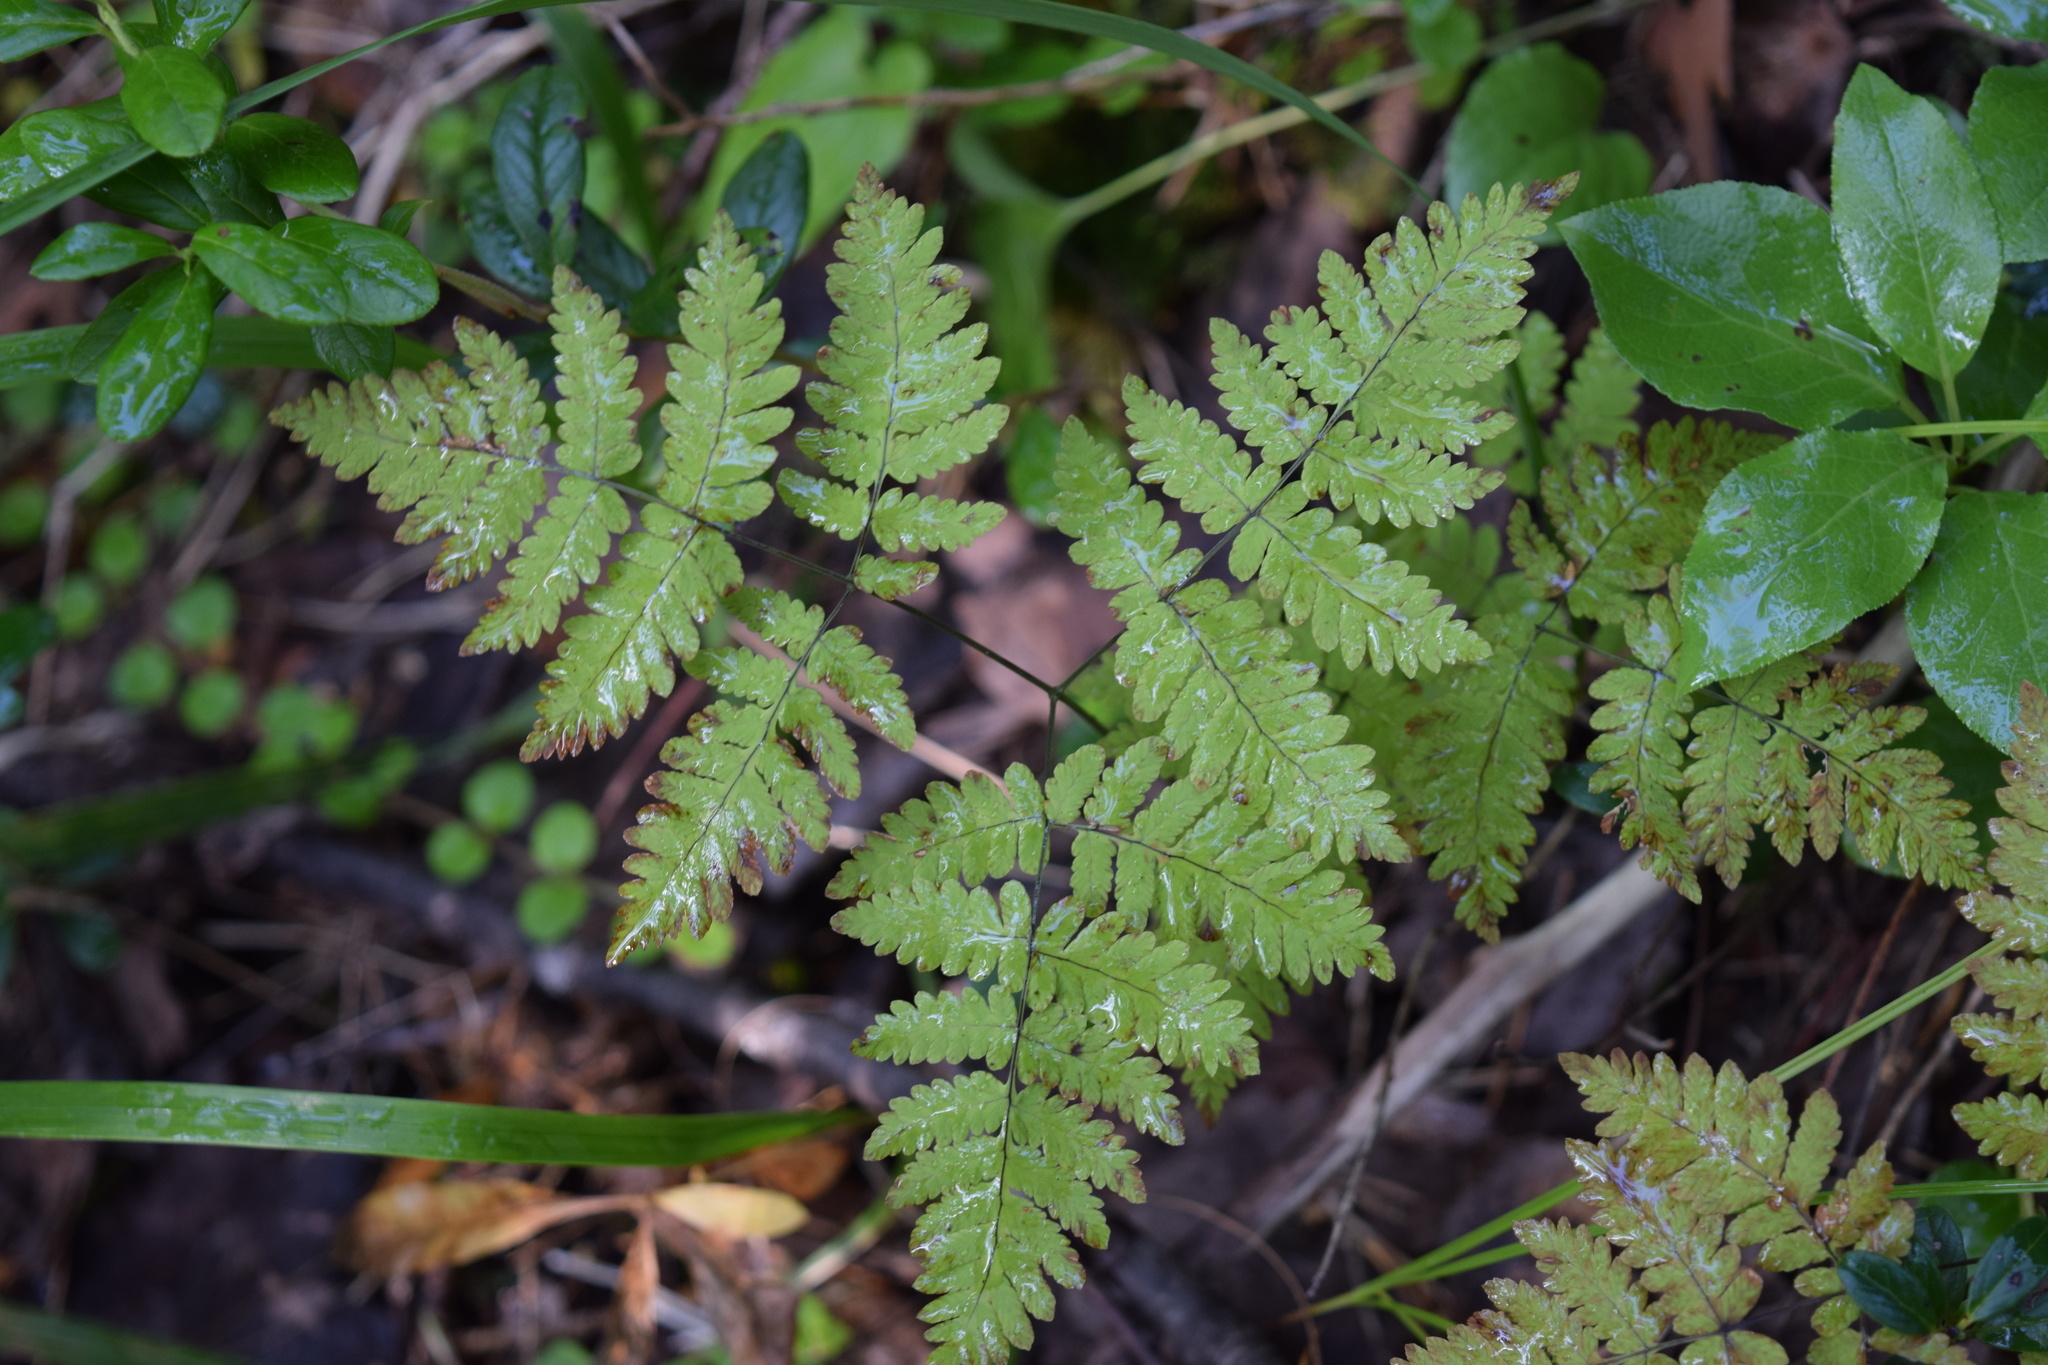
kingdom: Plantae
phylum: Tracheophyta
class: Polypodiopsida
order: Polypodiales
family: Cystopteridaceae
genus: Gymnocarpium
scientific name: Gymnocarpium dryopteris
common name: Oak fern
